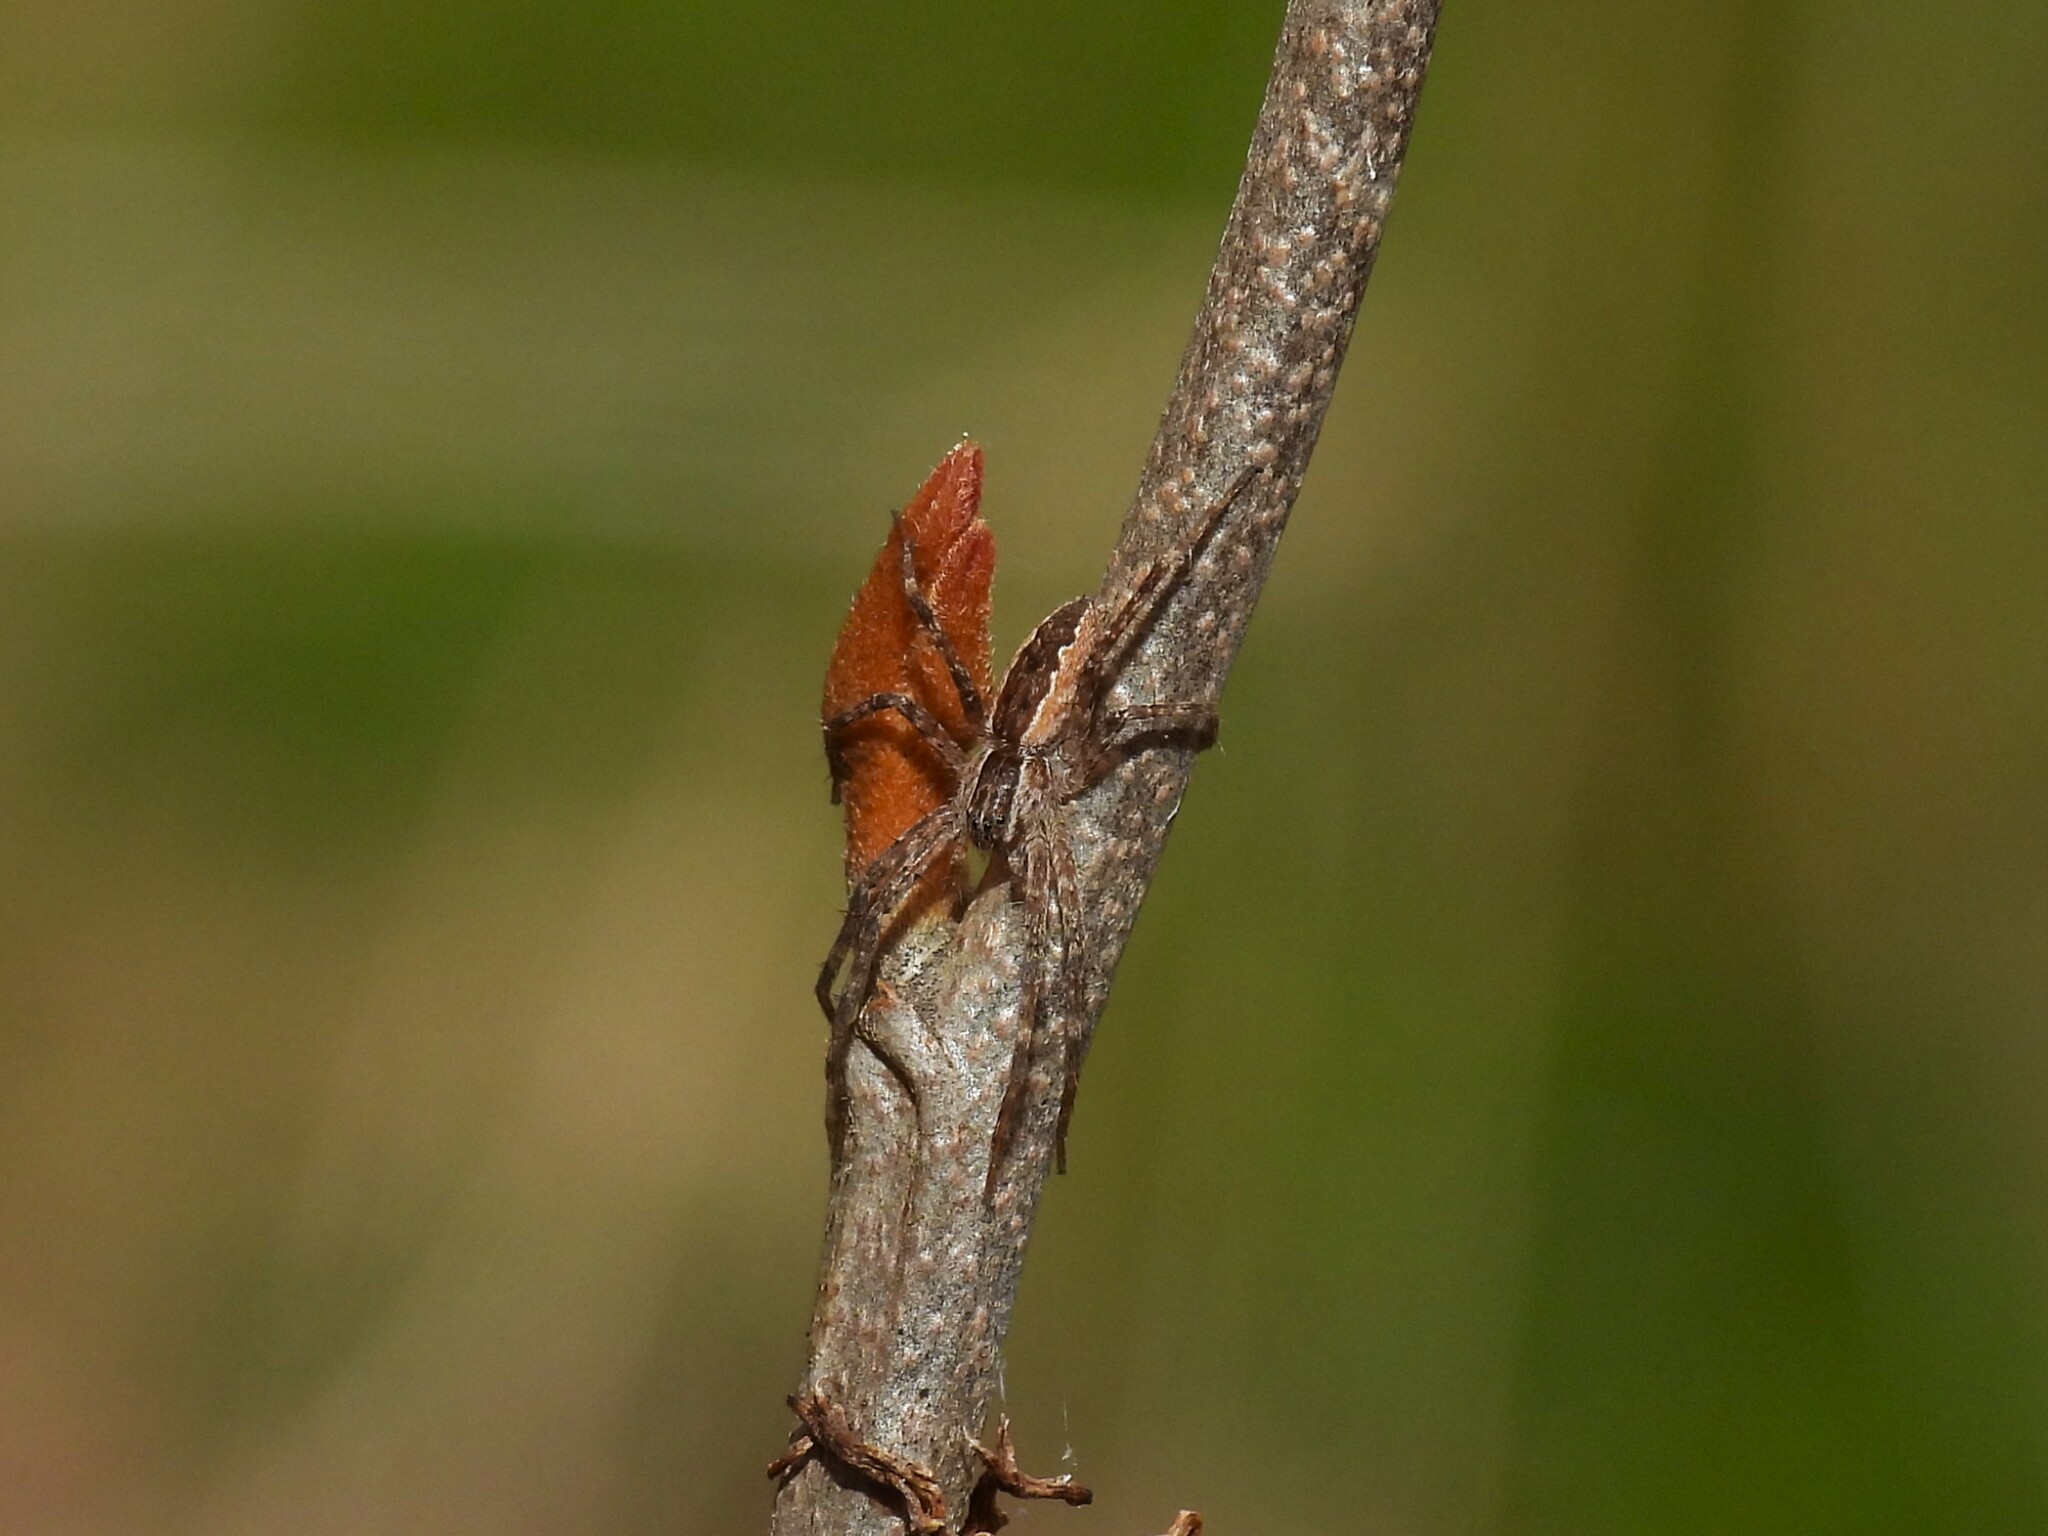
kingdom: Animalia
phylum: Arthropoda
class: Arachnida
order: Araneae
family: Pisauridae
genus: Pisaurina
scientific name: Pisaurina mira
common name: American nursery web spider
